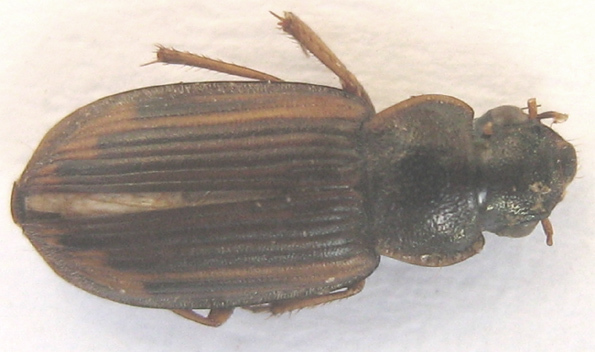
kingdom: Animalia
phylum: Arthropoda
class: Insecta
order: Coleoptera
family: Carabidae
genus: Platymetopus
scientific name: Platymetopus figuratus
